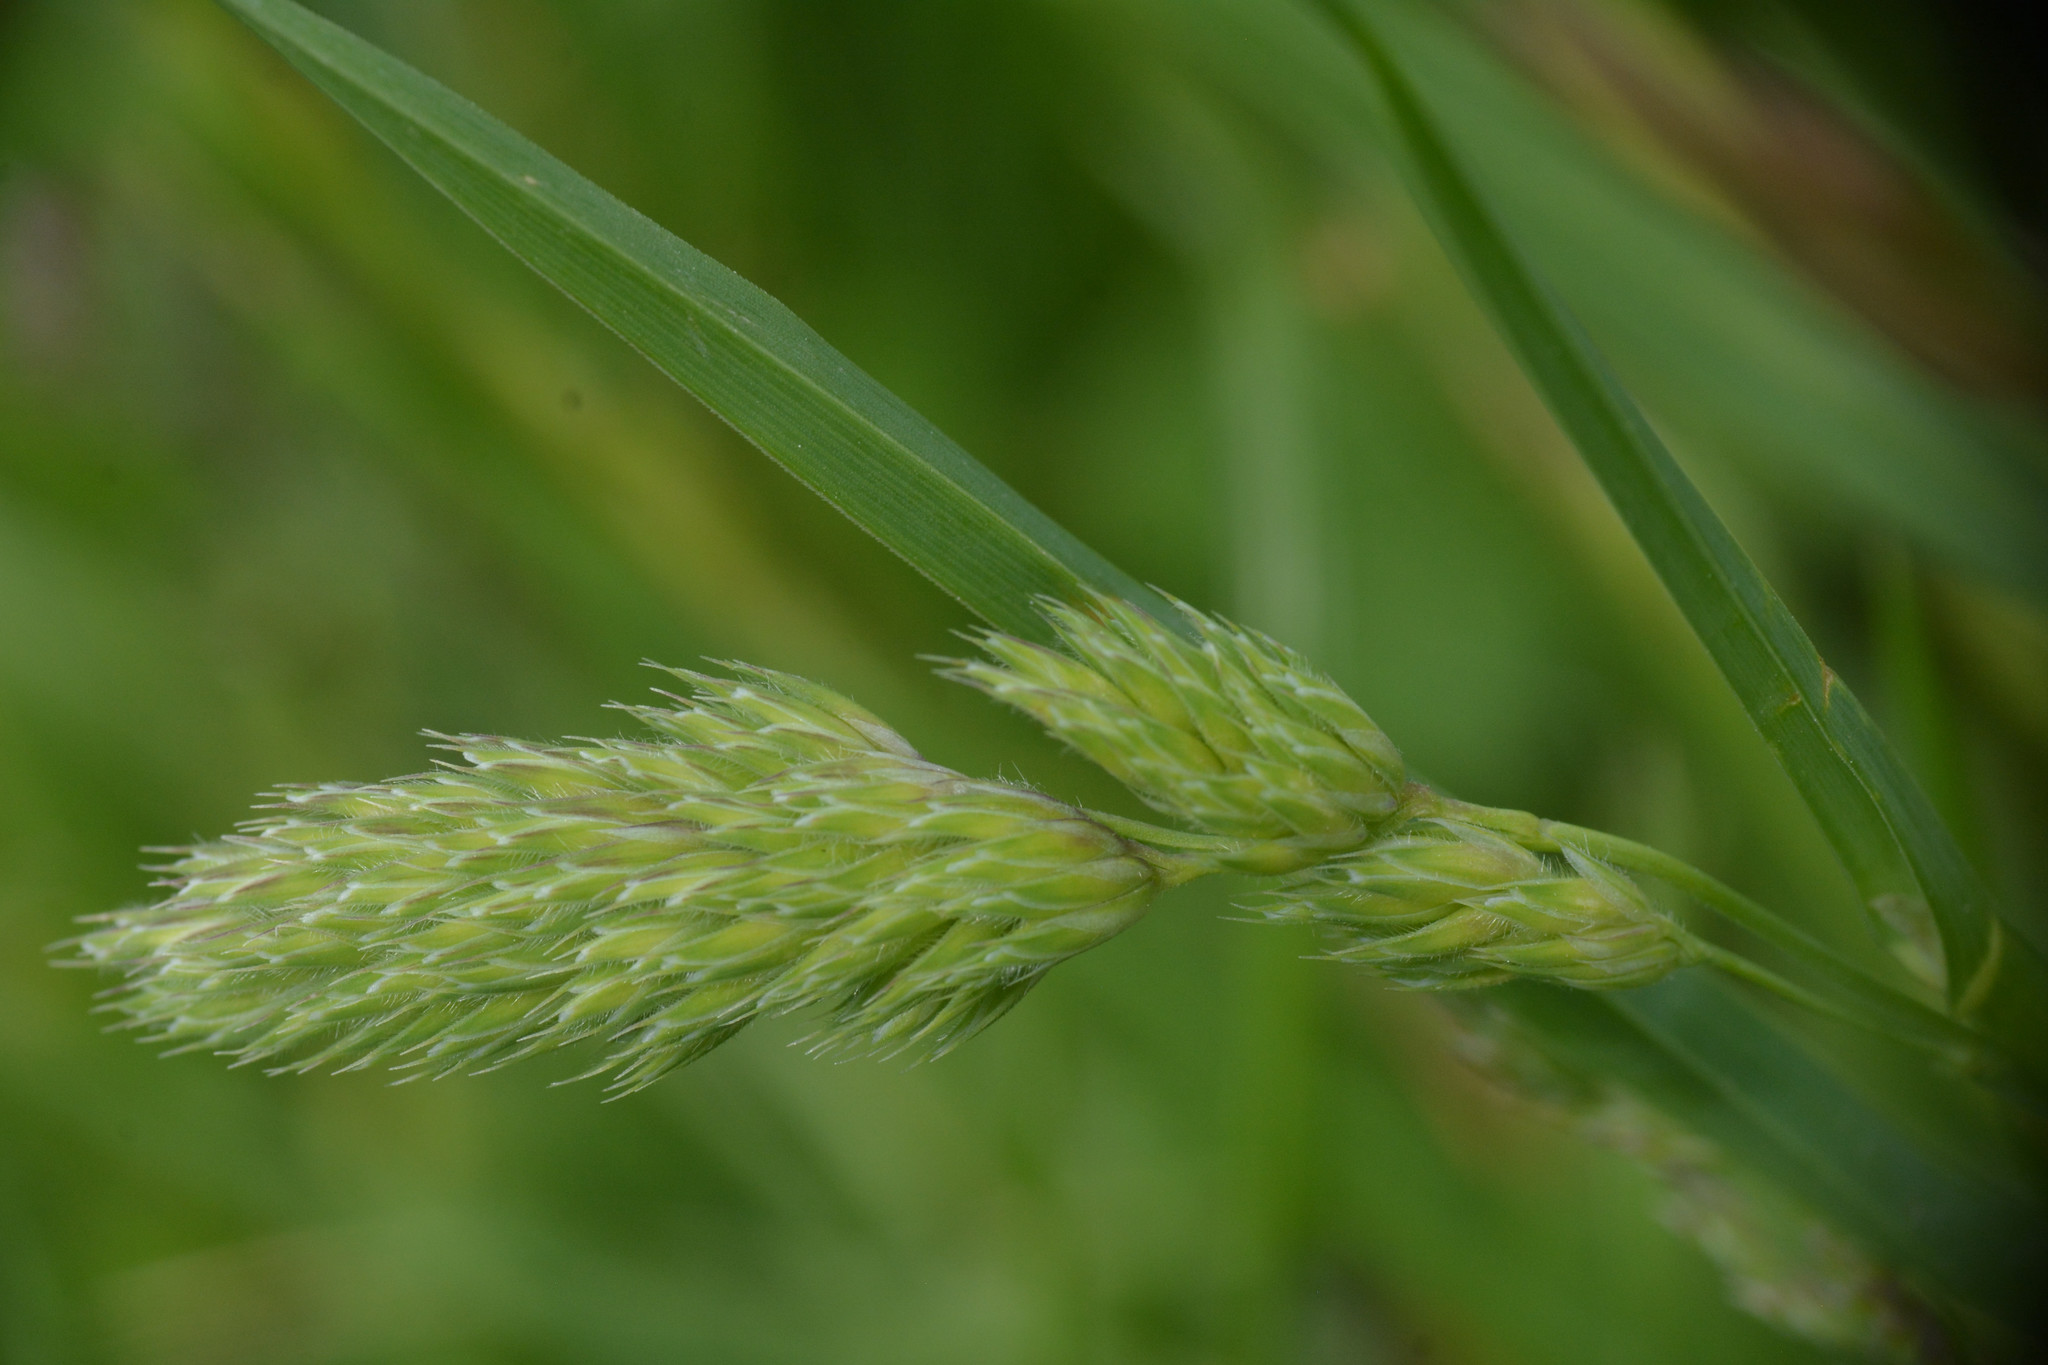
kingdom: Plantae
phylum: Tracheophyta
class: Liliopsida
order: Poales
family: Poaceae
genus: Dactylis
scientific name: Dactylis glomerata
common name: Orchardgrass
